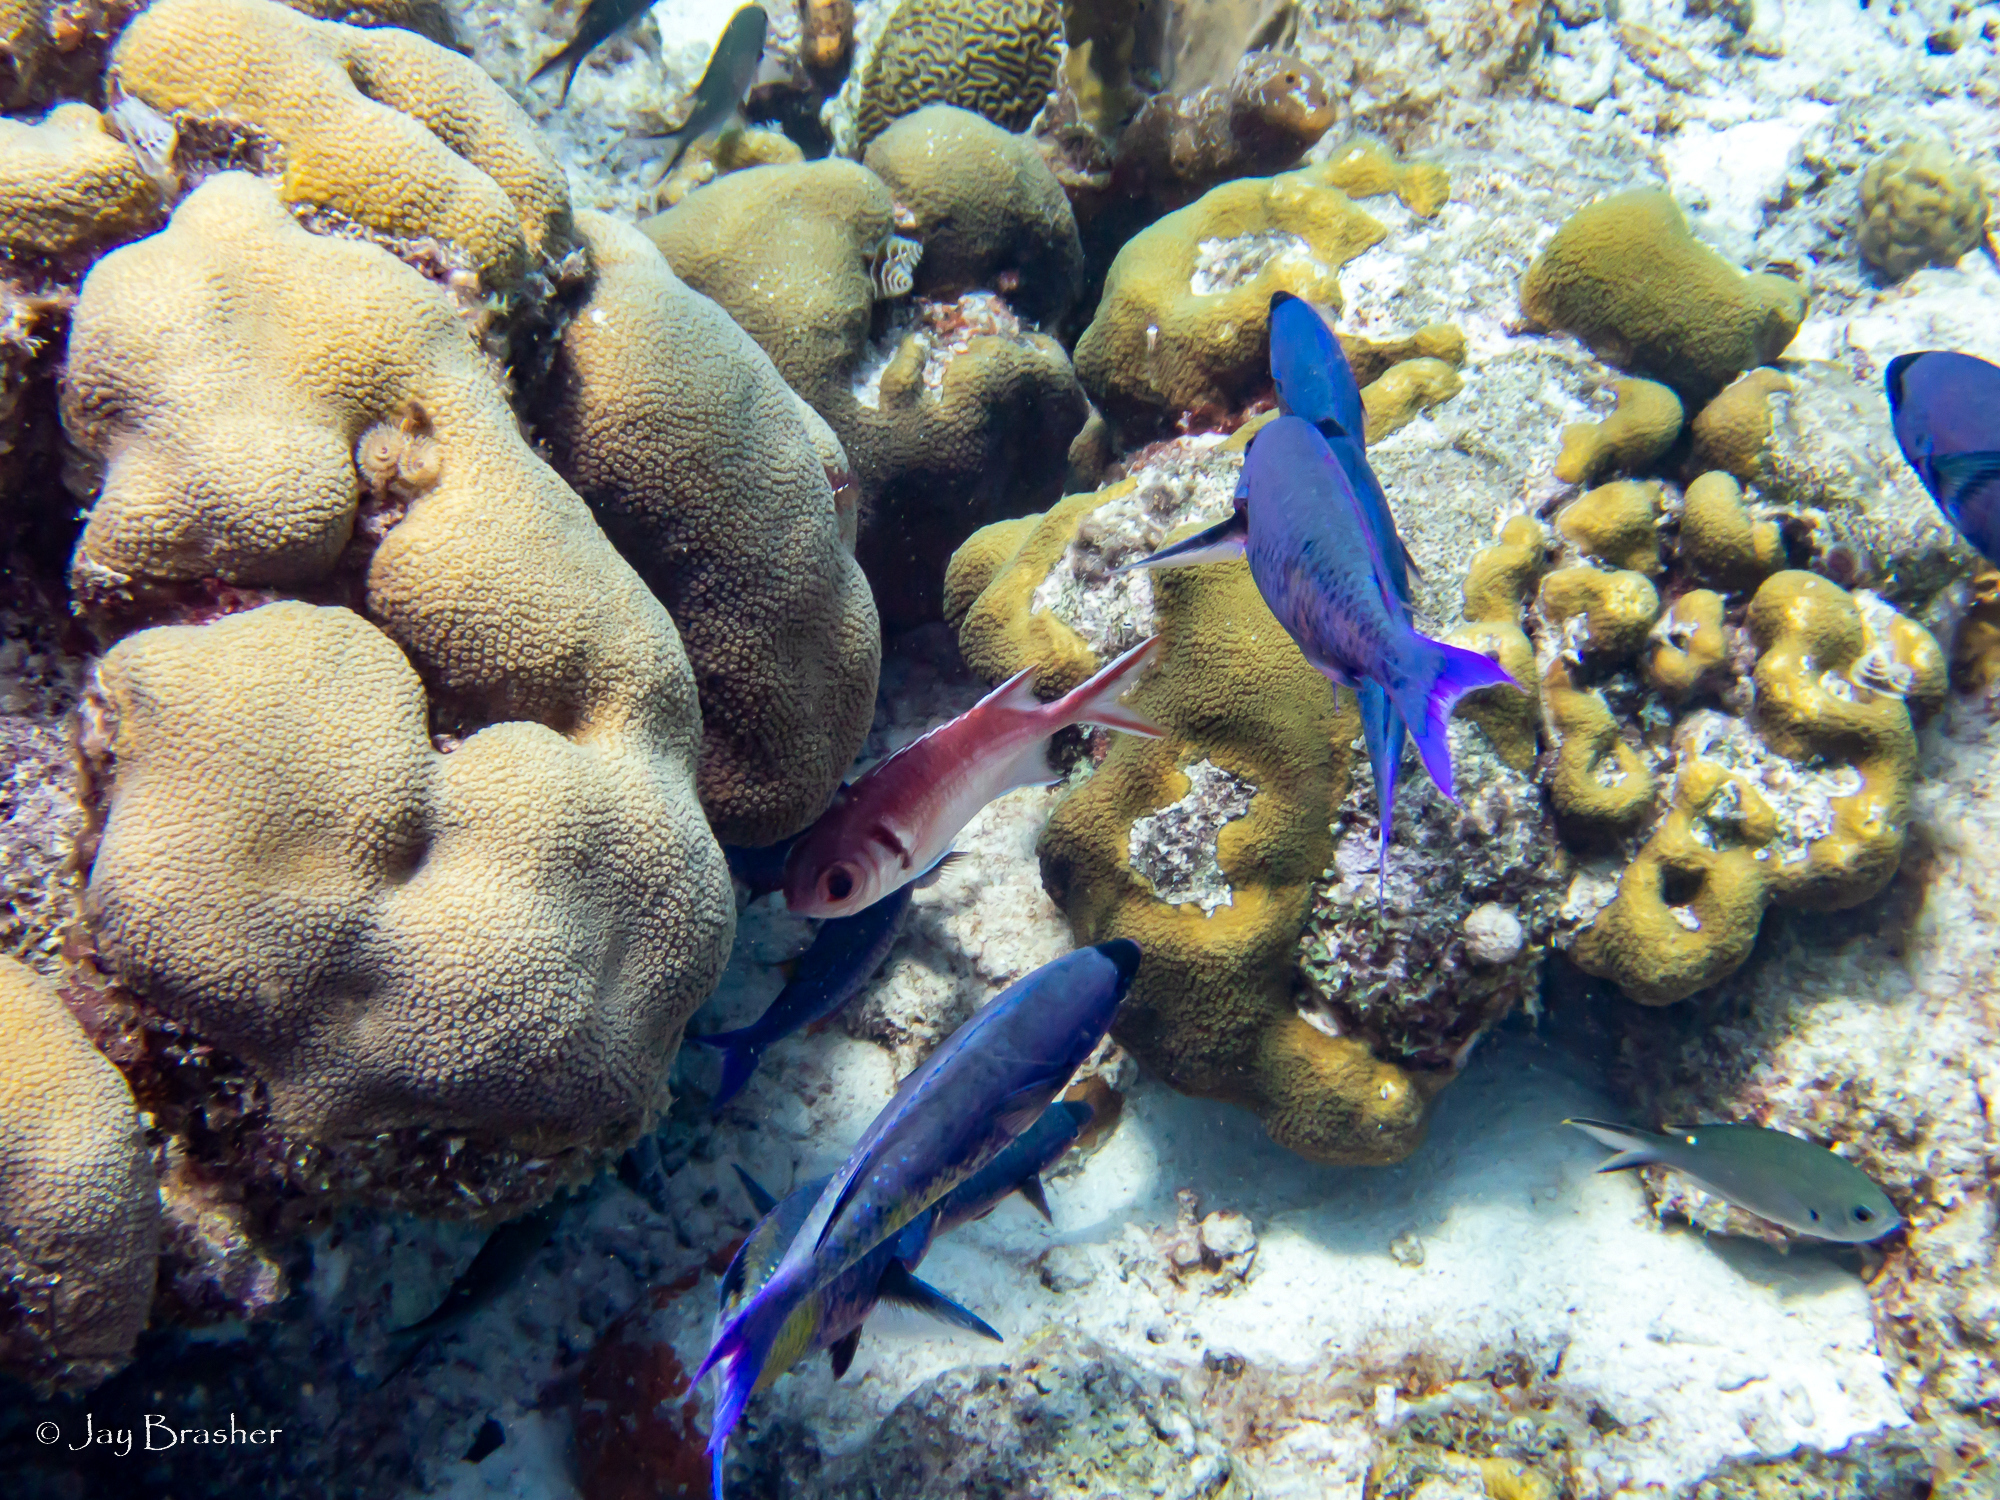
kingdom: Animalia
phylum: Chordata
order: Perciformes
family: Labridae
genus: Bodianus
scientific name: Bodianus
